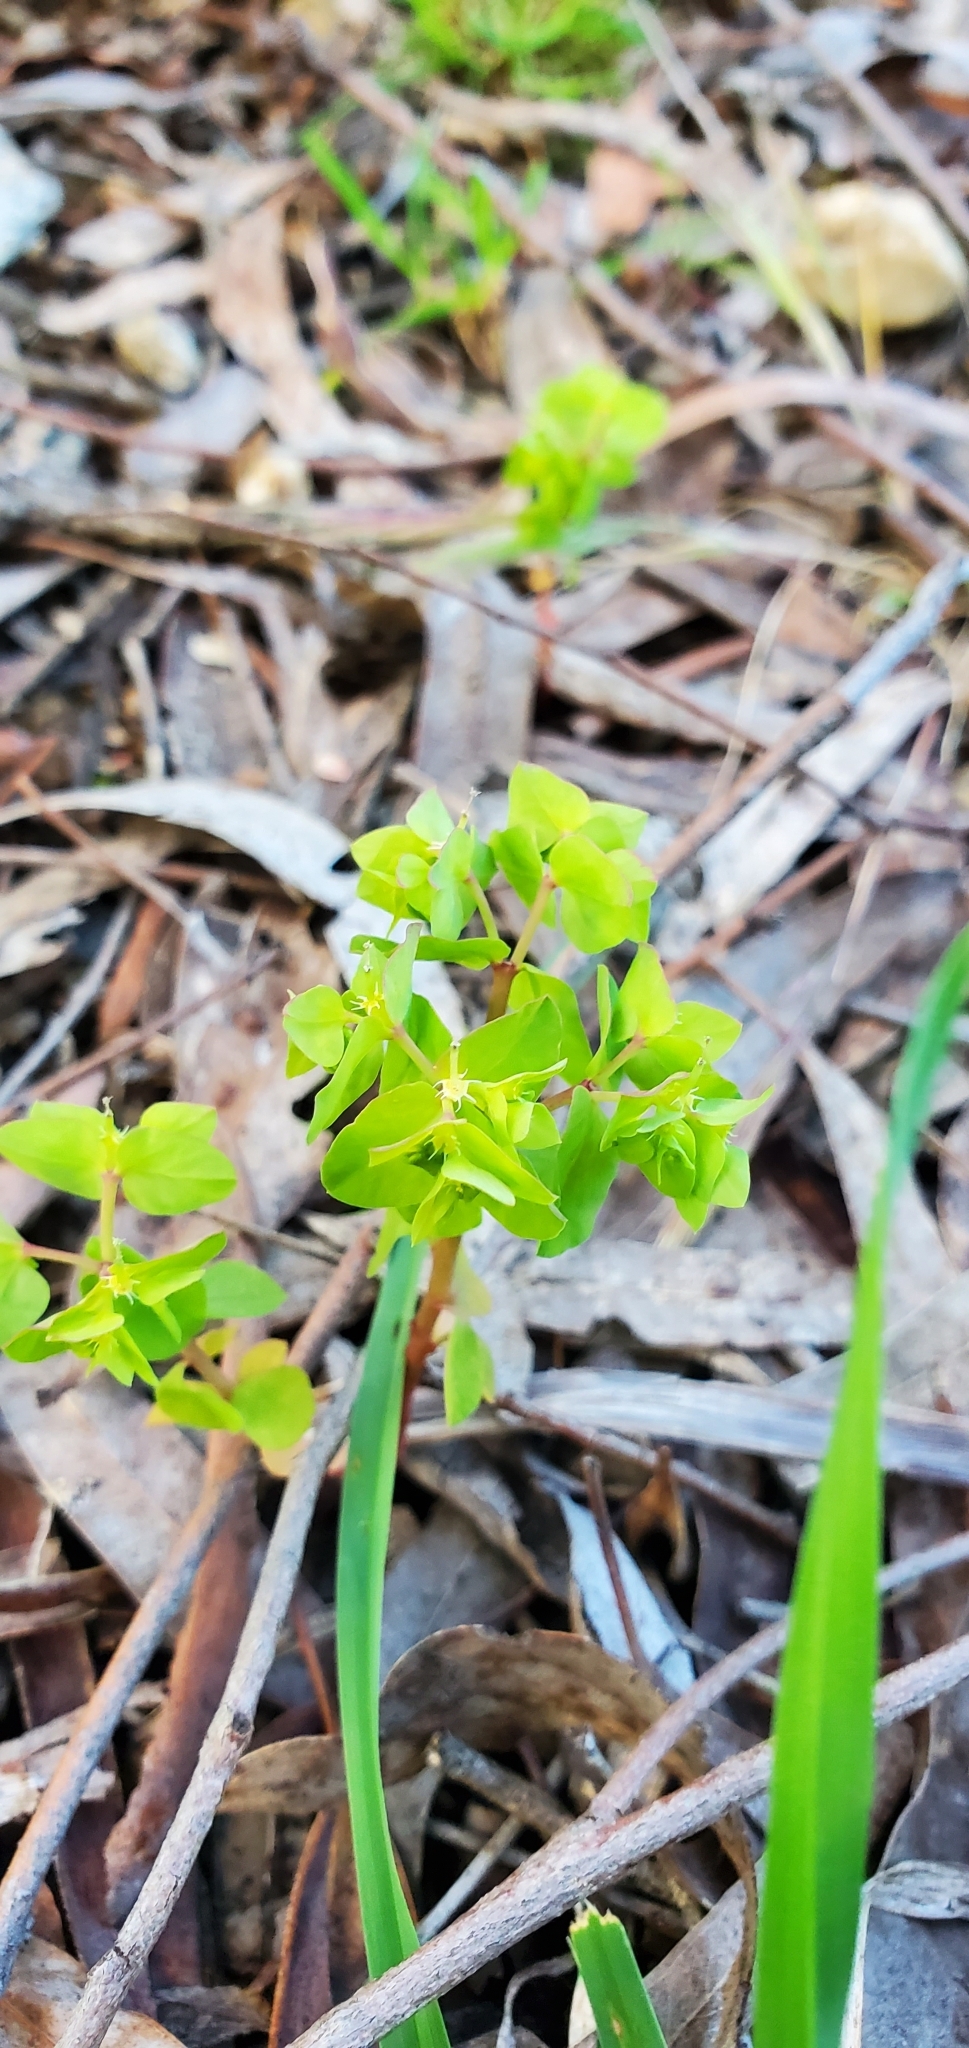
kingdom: Plantae
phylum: Tracheophyta
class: Magnoliopsida
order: Malpighiales
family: Euphorbiaceae
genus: Euphorbia
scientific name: Euphorbia peplus
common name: Petty spurge
